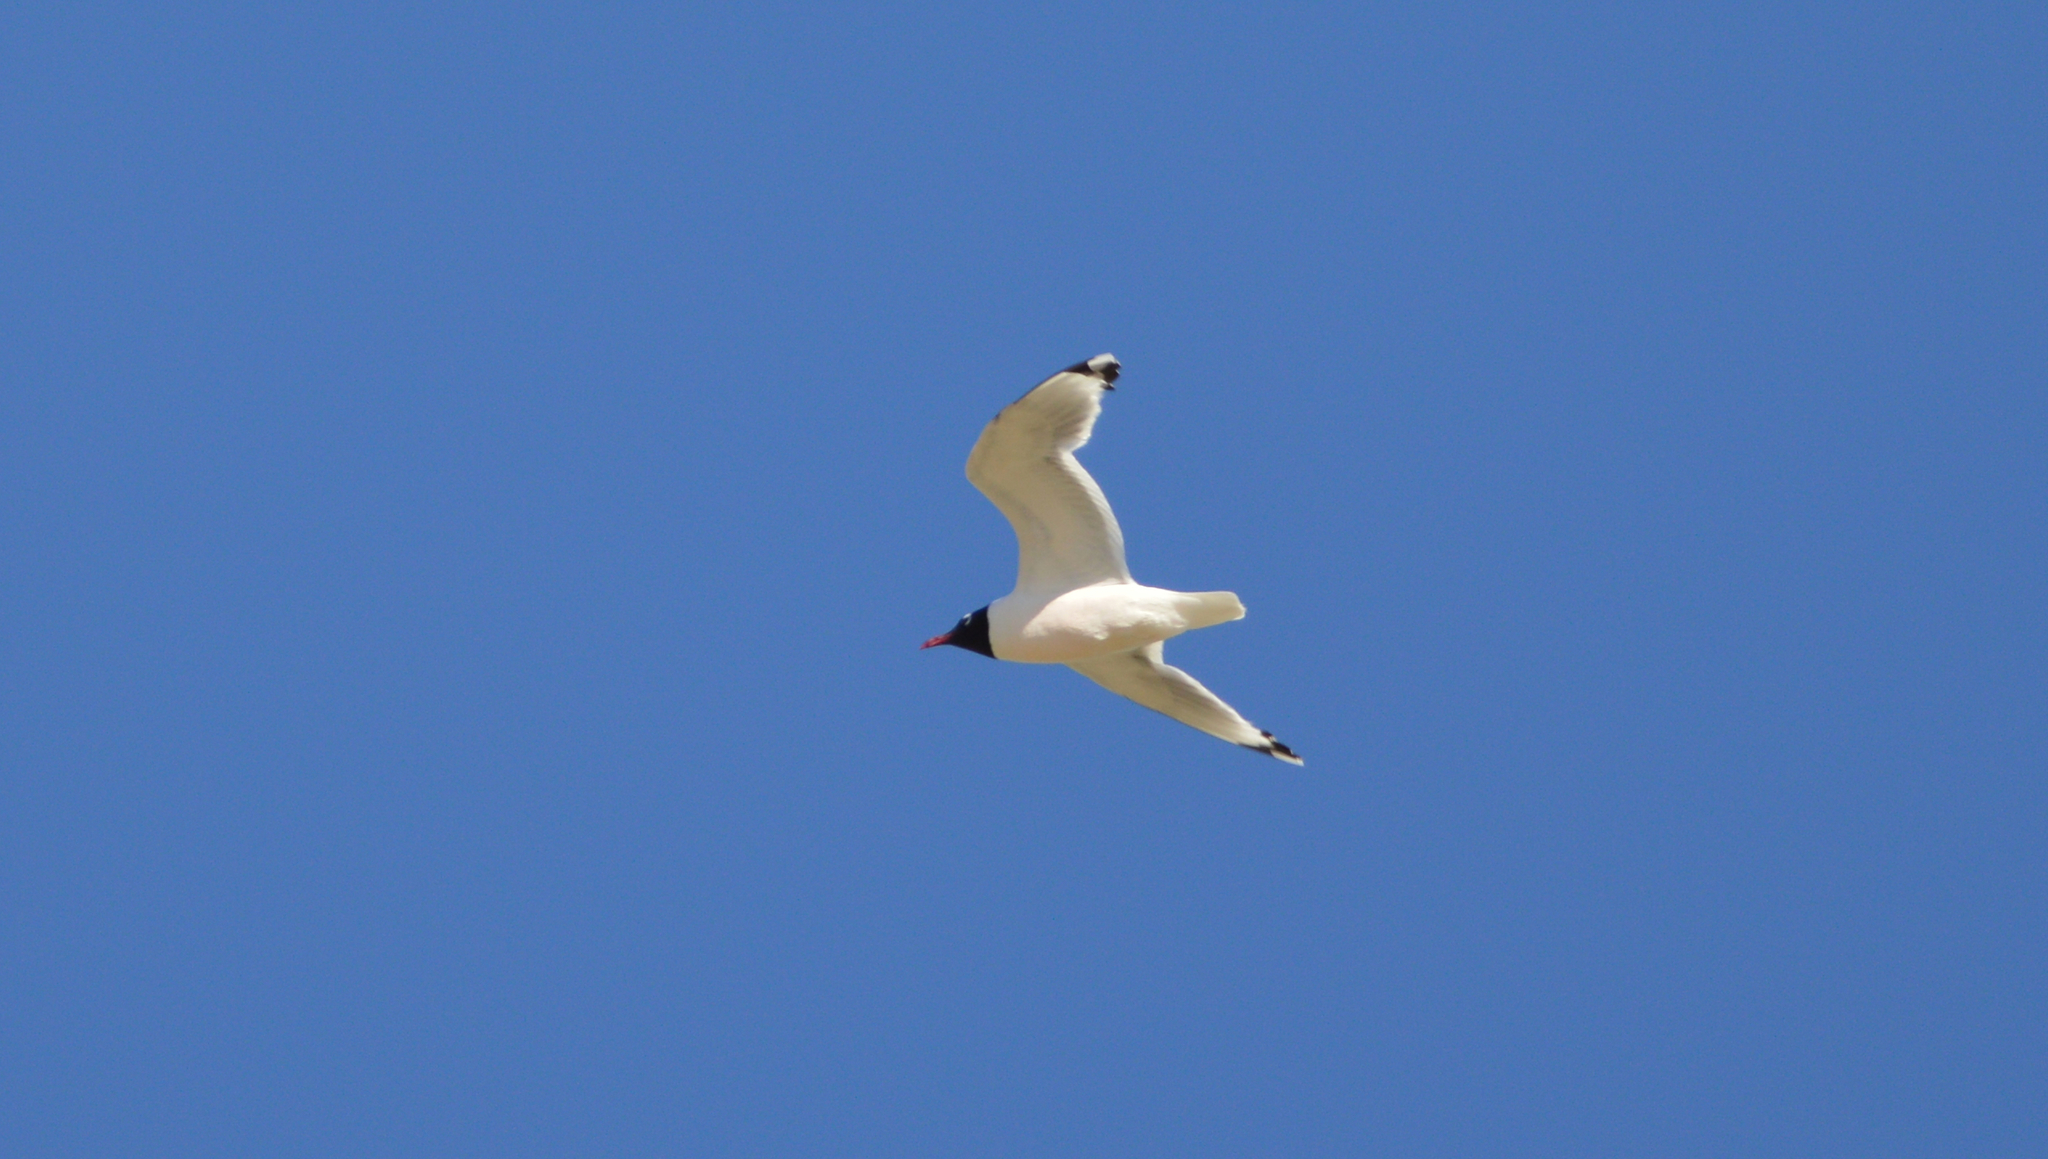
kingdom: Animalia
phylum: Chordata
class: Aves
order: Charadriiformes
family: Laridae
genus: Leucophaeus
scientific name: Leucophaeus pipixcan
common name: Franklin's gull
